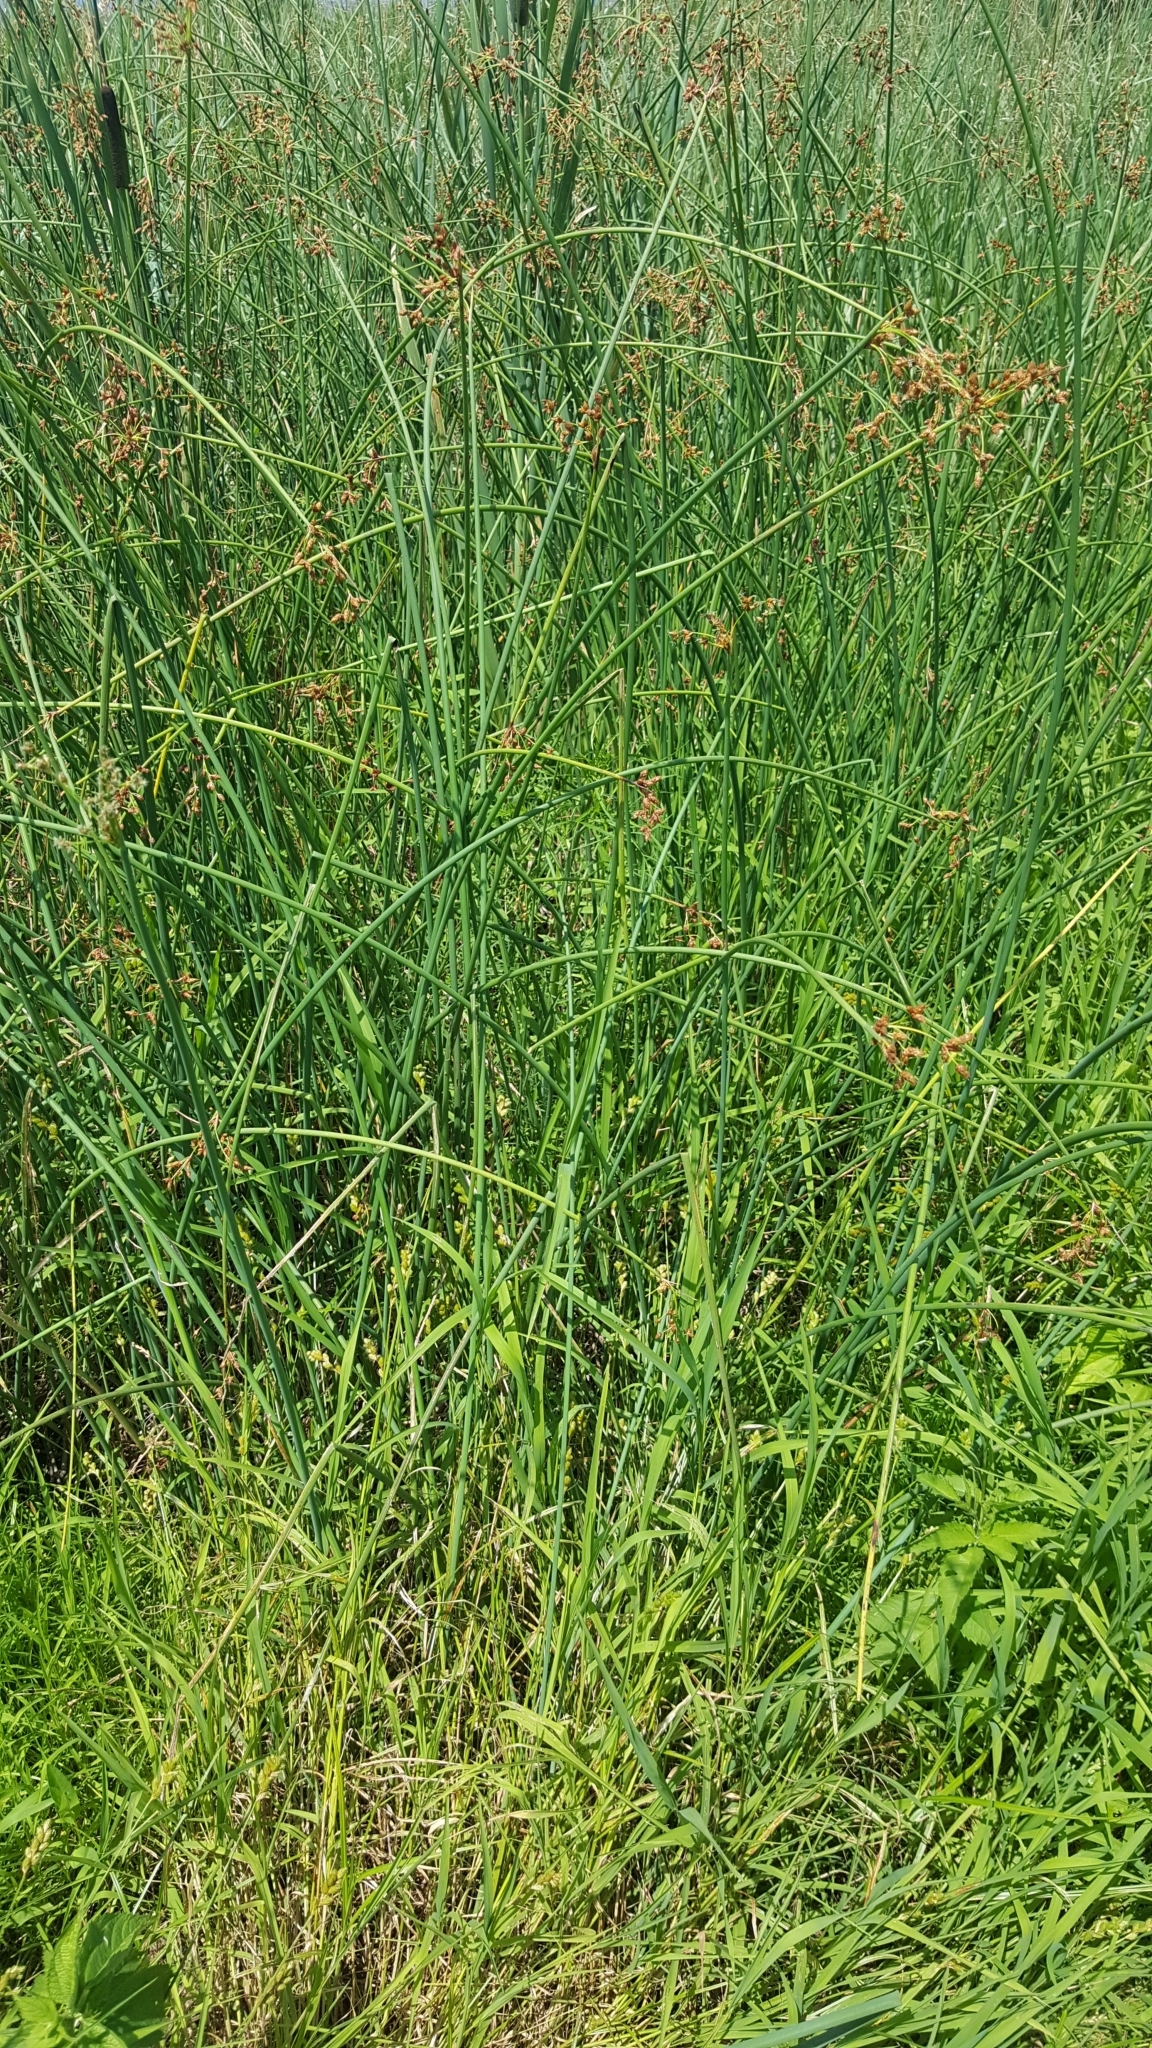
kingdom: Plantae
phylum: Tracheophyta
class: Liliopsida
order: Poales
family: Cyperaceae
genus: Schoenoplectus
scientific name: Schoenoplectus tabernaemontani
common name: Grey club-rush
